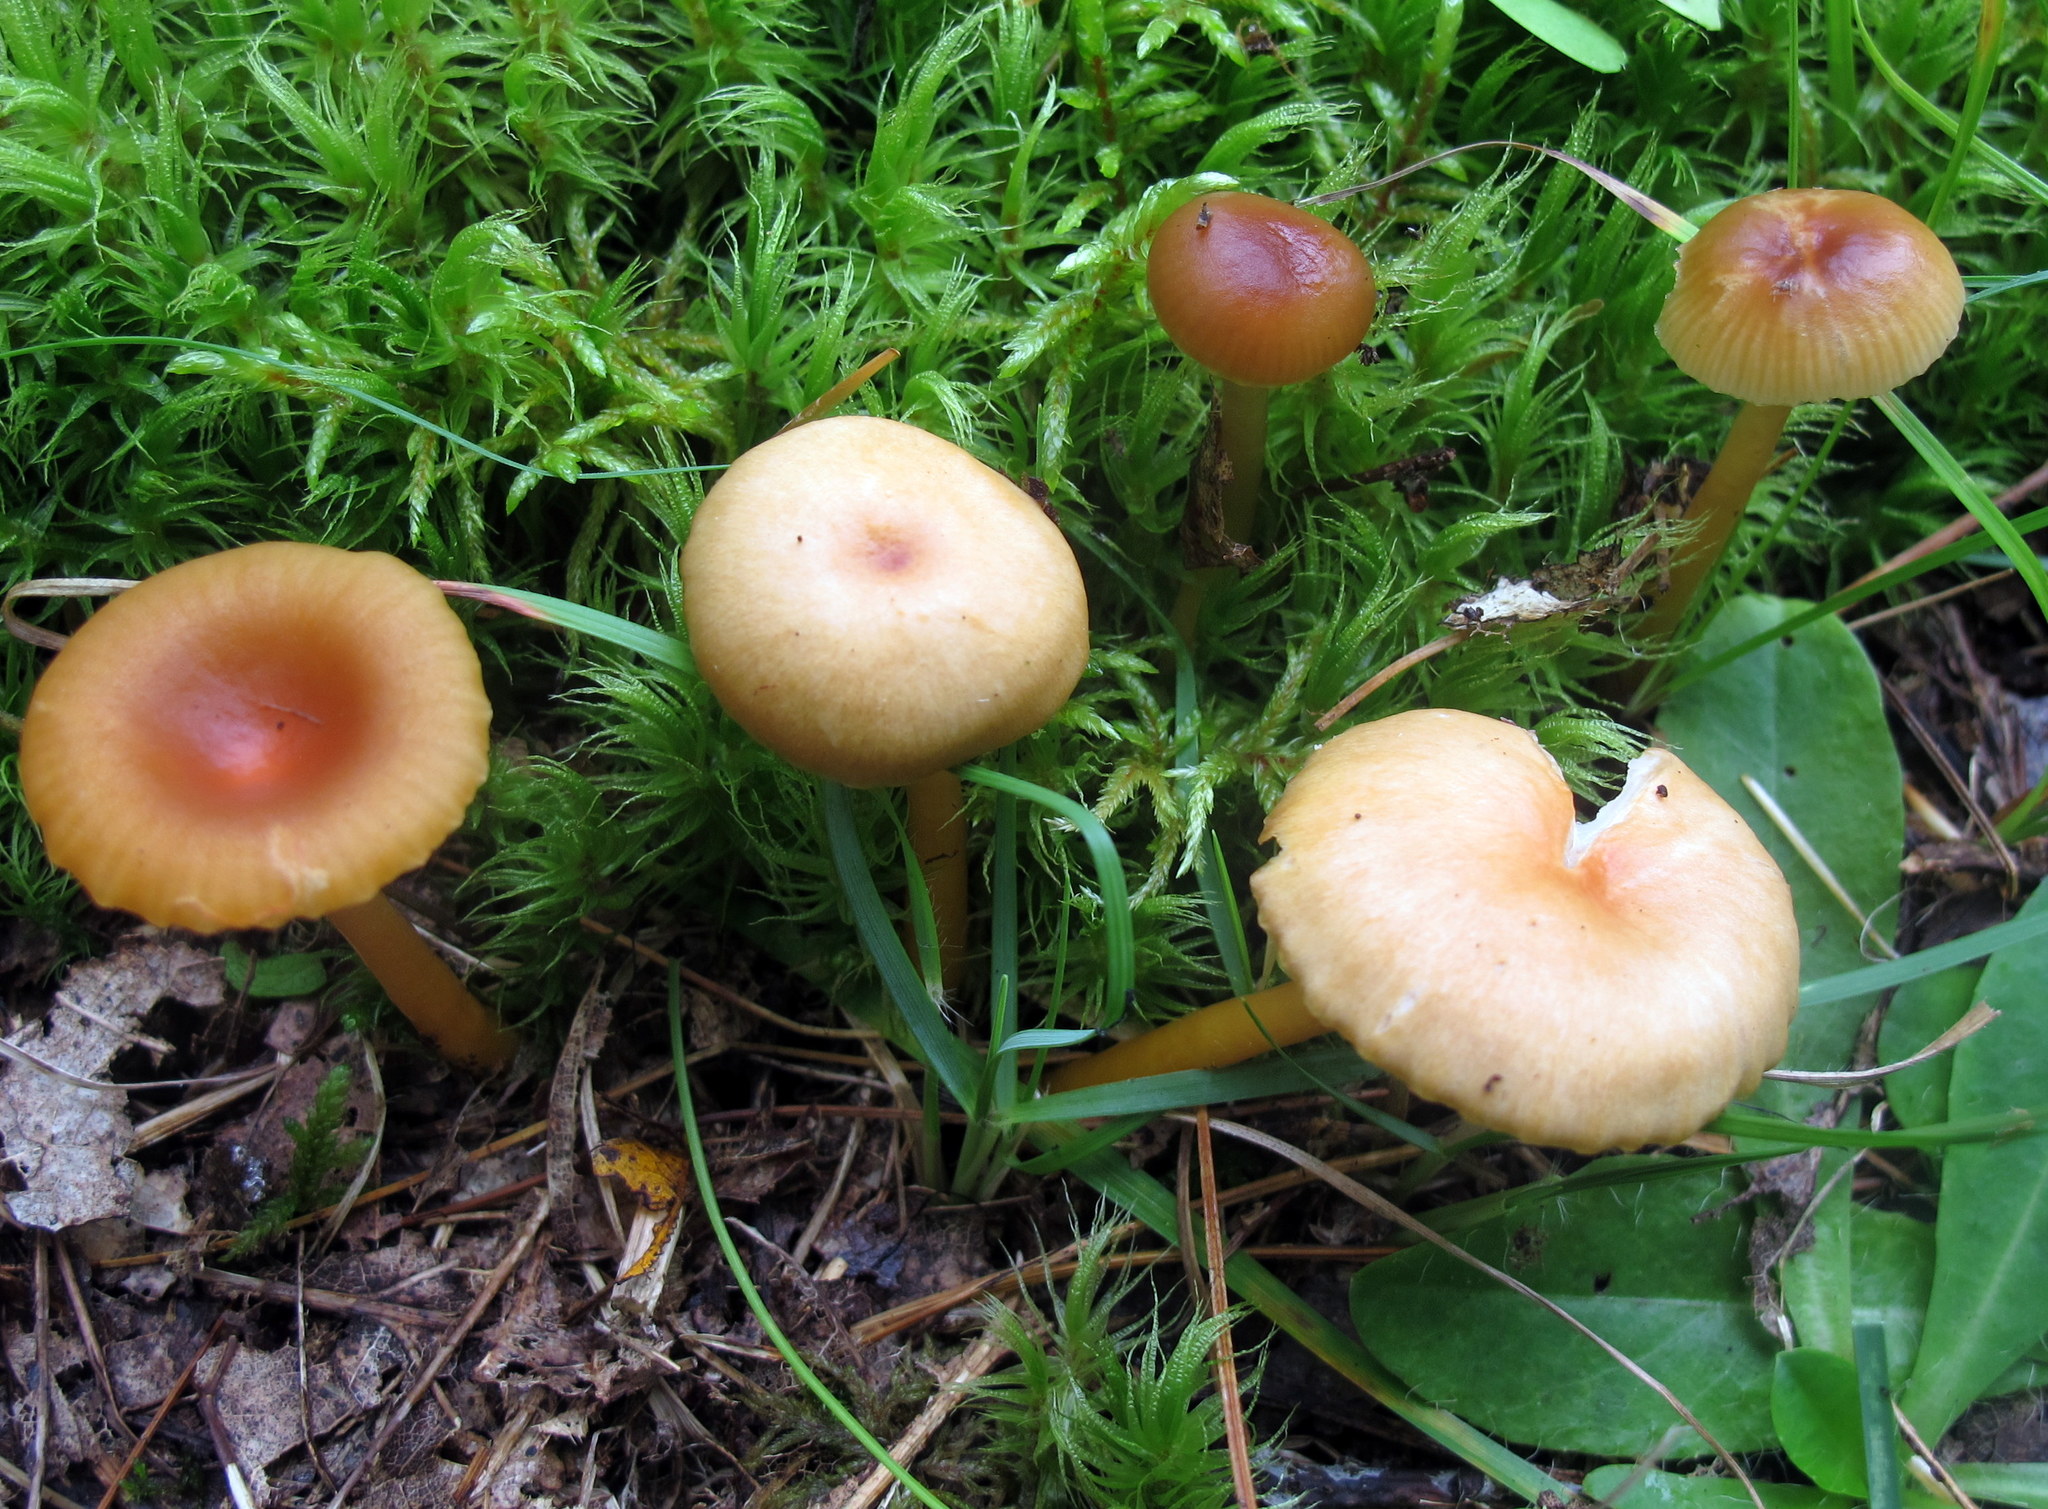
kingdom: Fungi
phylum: Basidiomycota
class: Agaricomycetes
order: Agaricales
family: Hygrophoraceae
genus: Gliophorus
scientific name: Gliophorus laetus
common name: Heath waxcap
